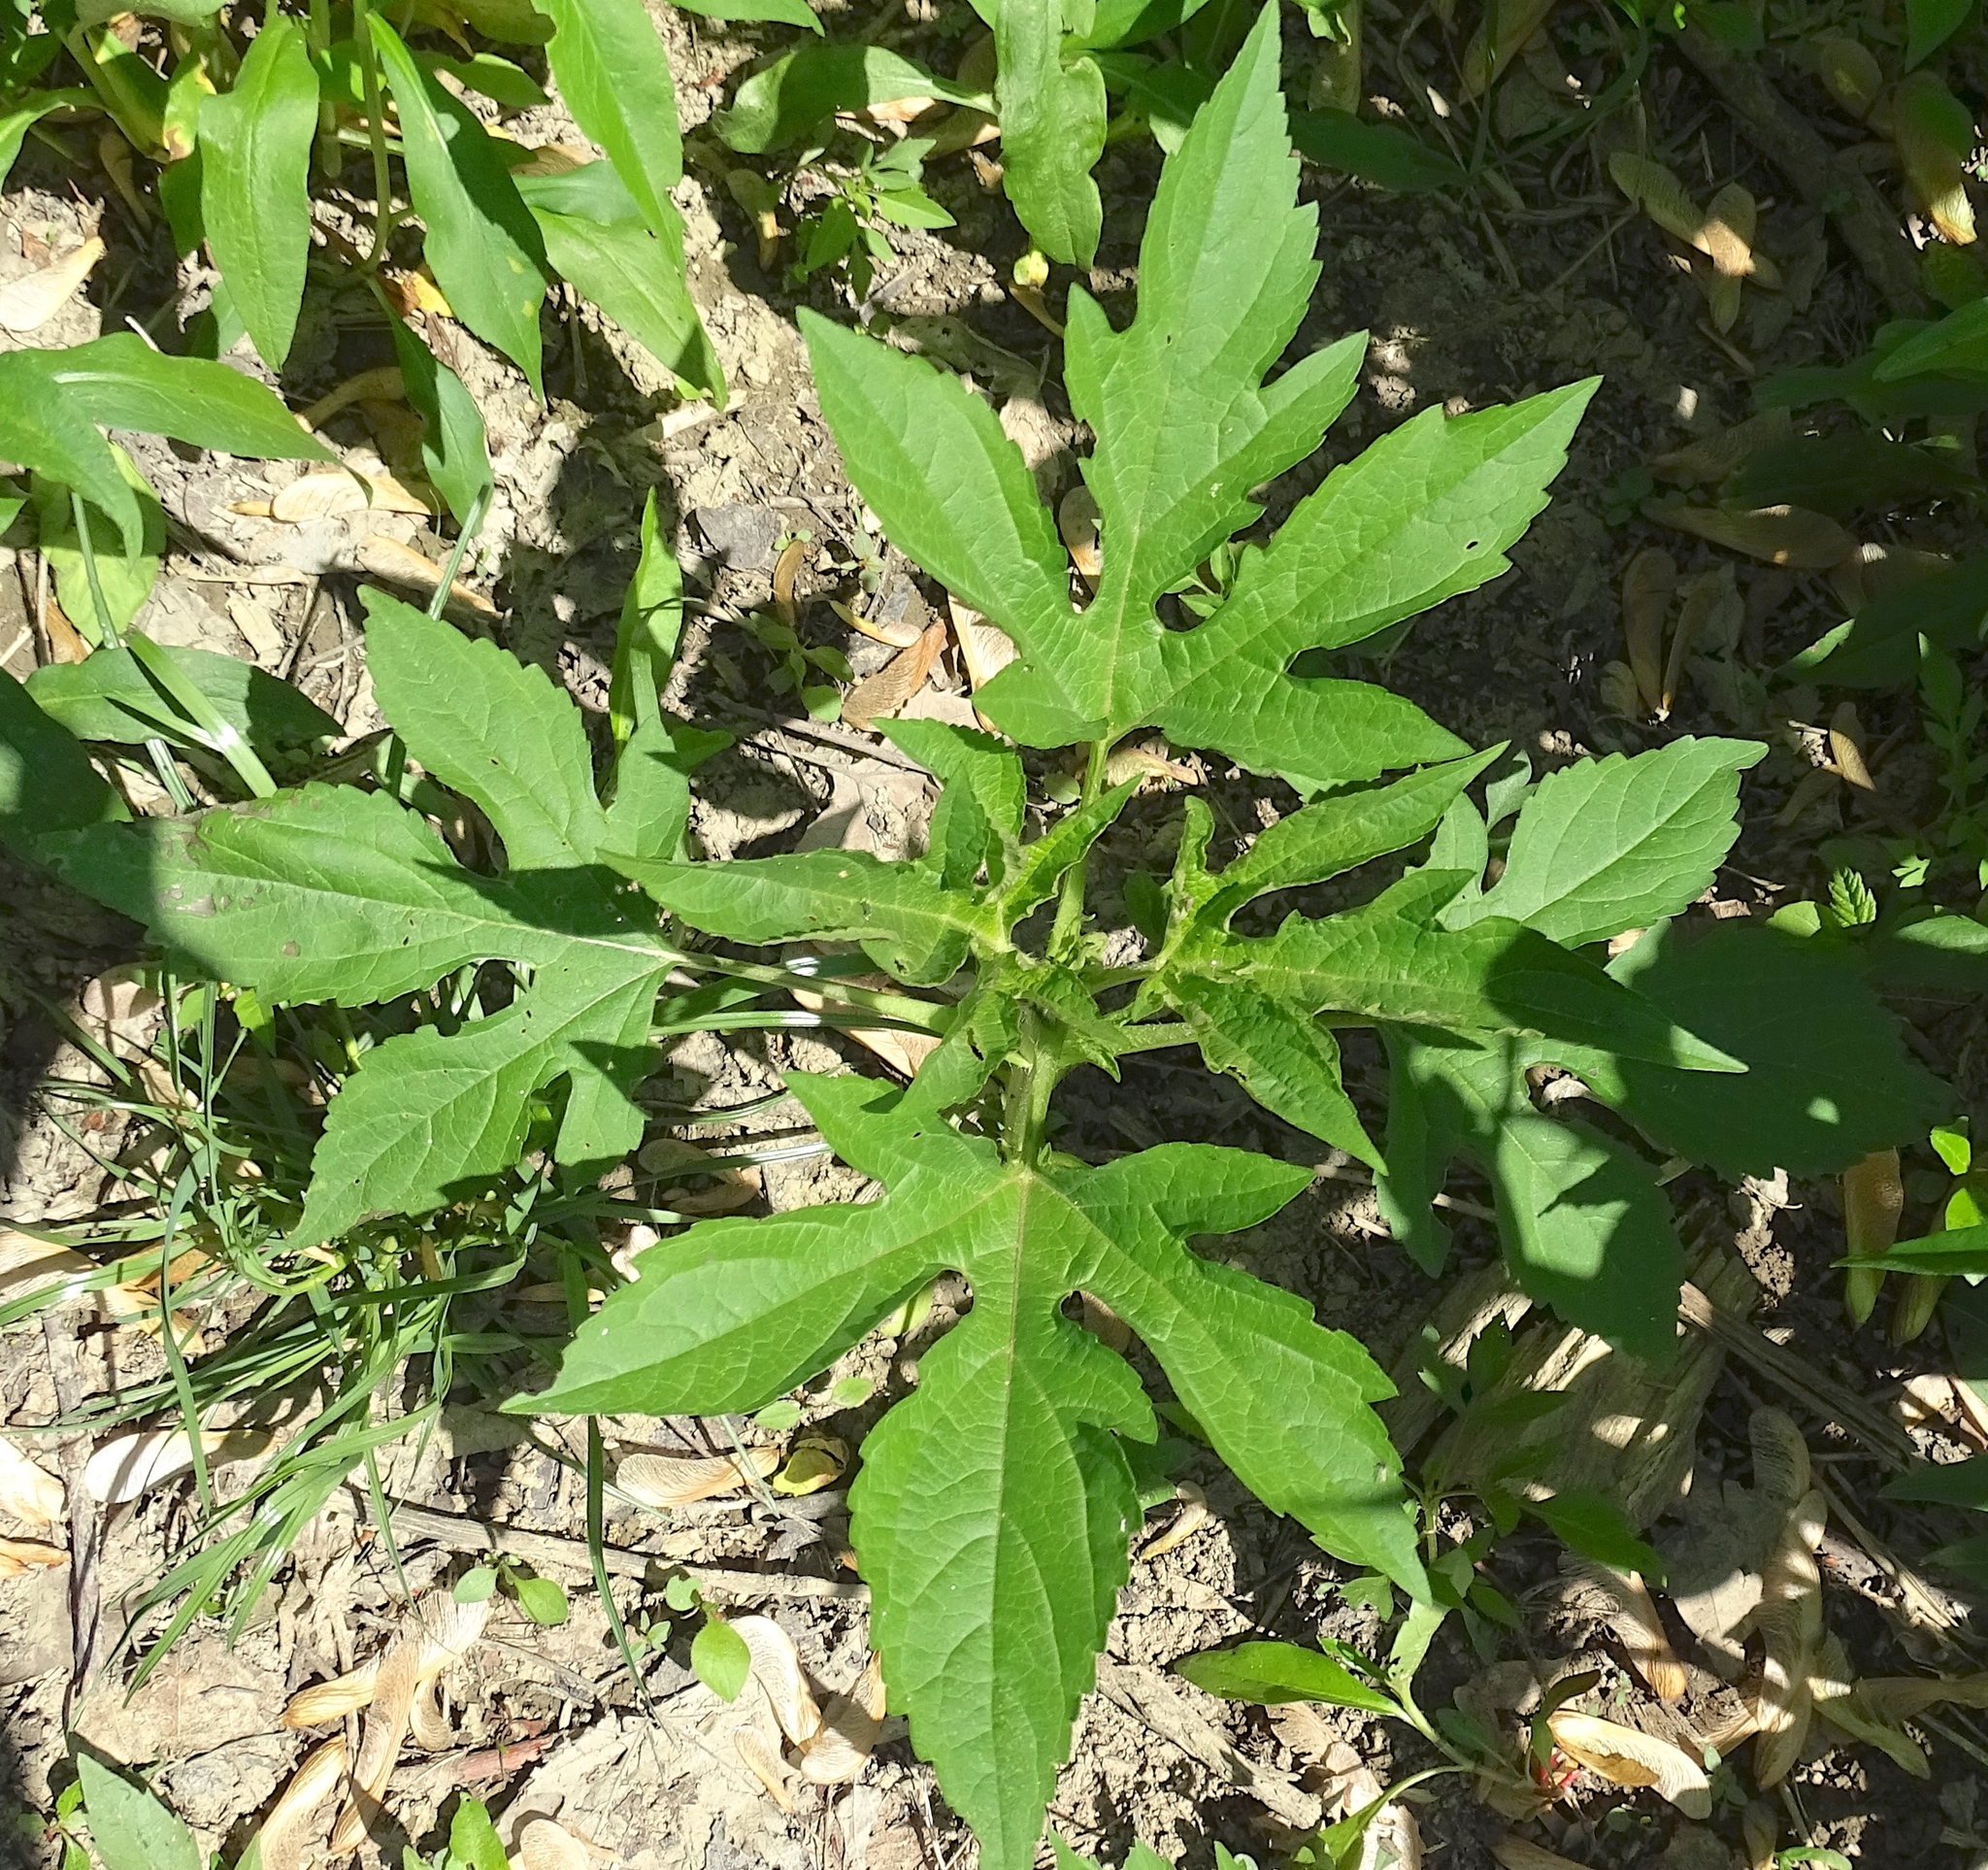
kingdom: Plantae
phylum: Tracheophyta
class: Magnoliopsida
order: Asterales
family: Asteraceae
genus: Ambrosia
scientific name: Ambrosia trifida
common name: Giant ragweed
